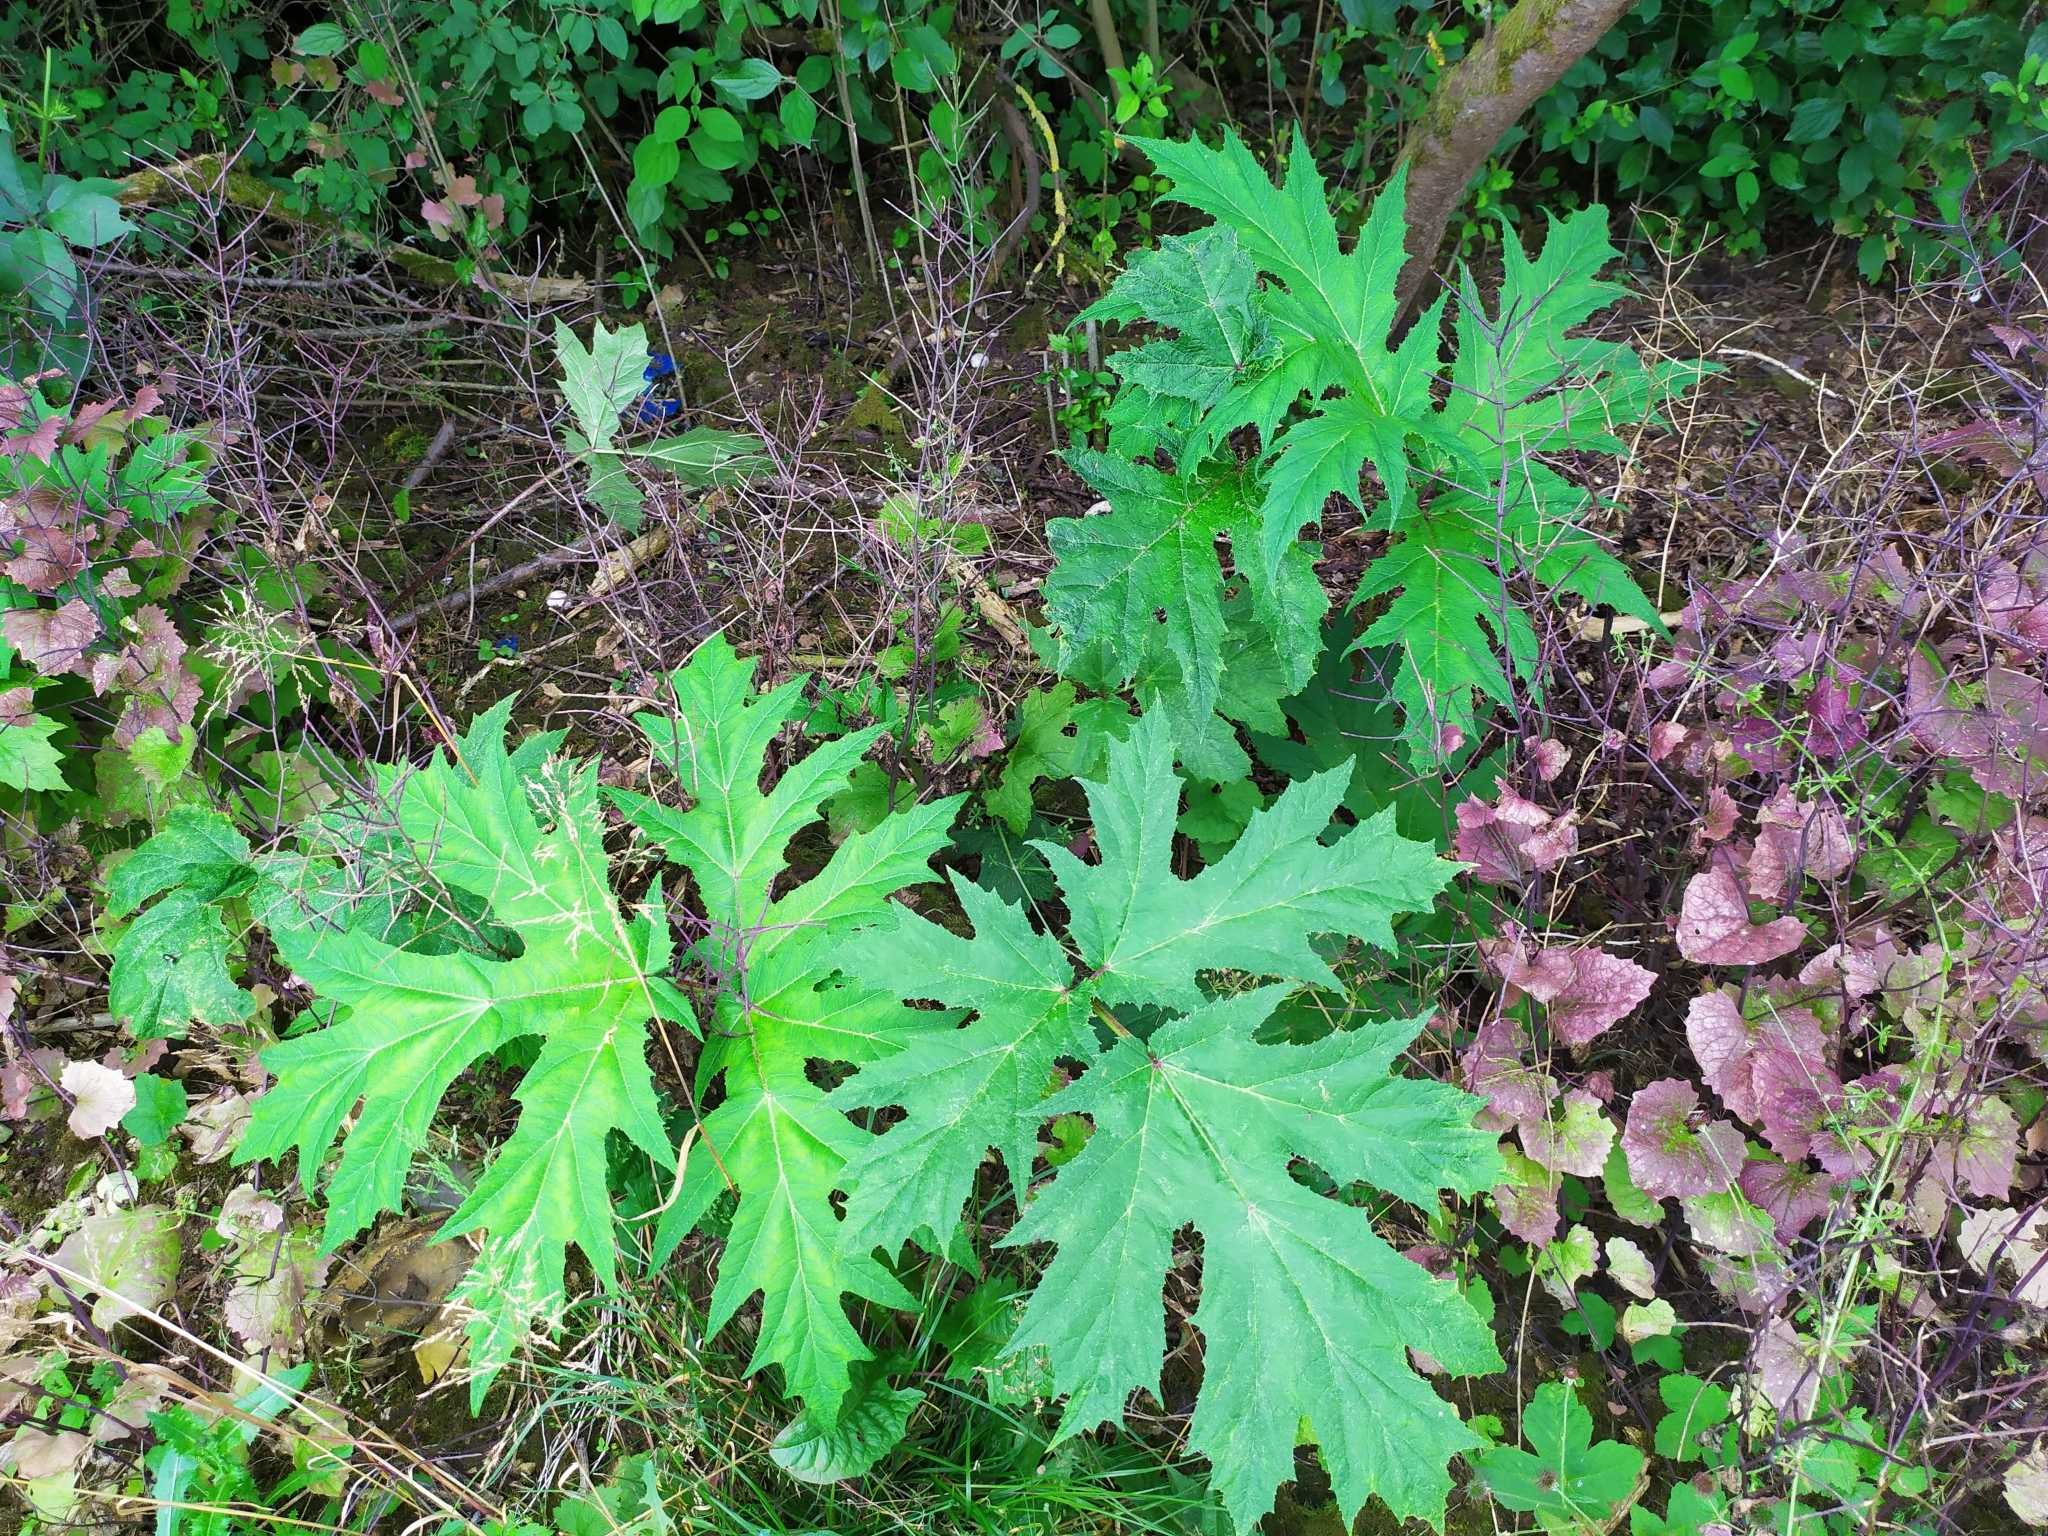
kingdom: Plantae
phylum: Tracheophyta
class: Magnoliopsida
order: Apiales
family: Apiaceae
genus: Heracleum
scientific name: Heracleum mantegazzianum
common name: Giant hogweed
